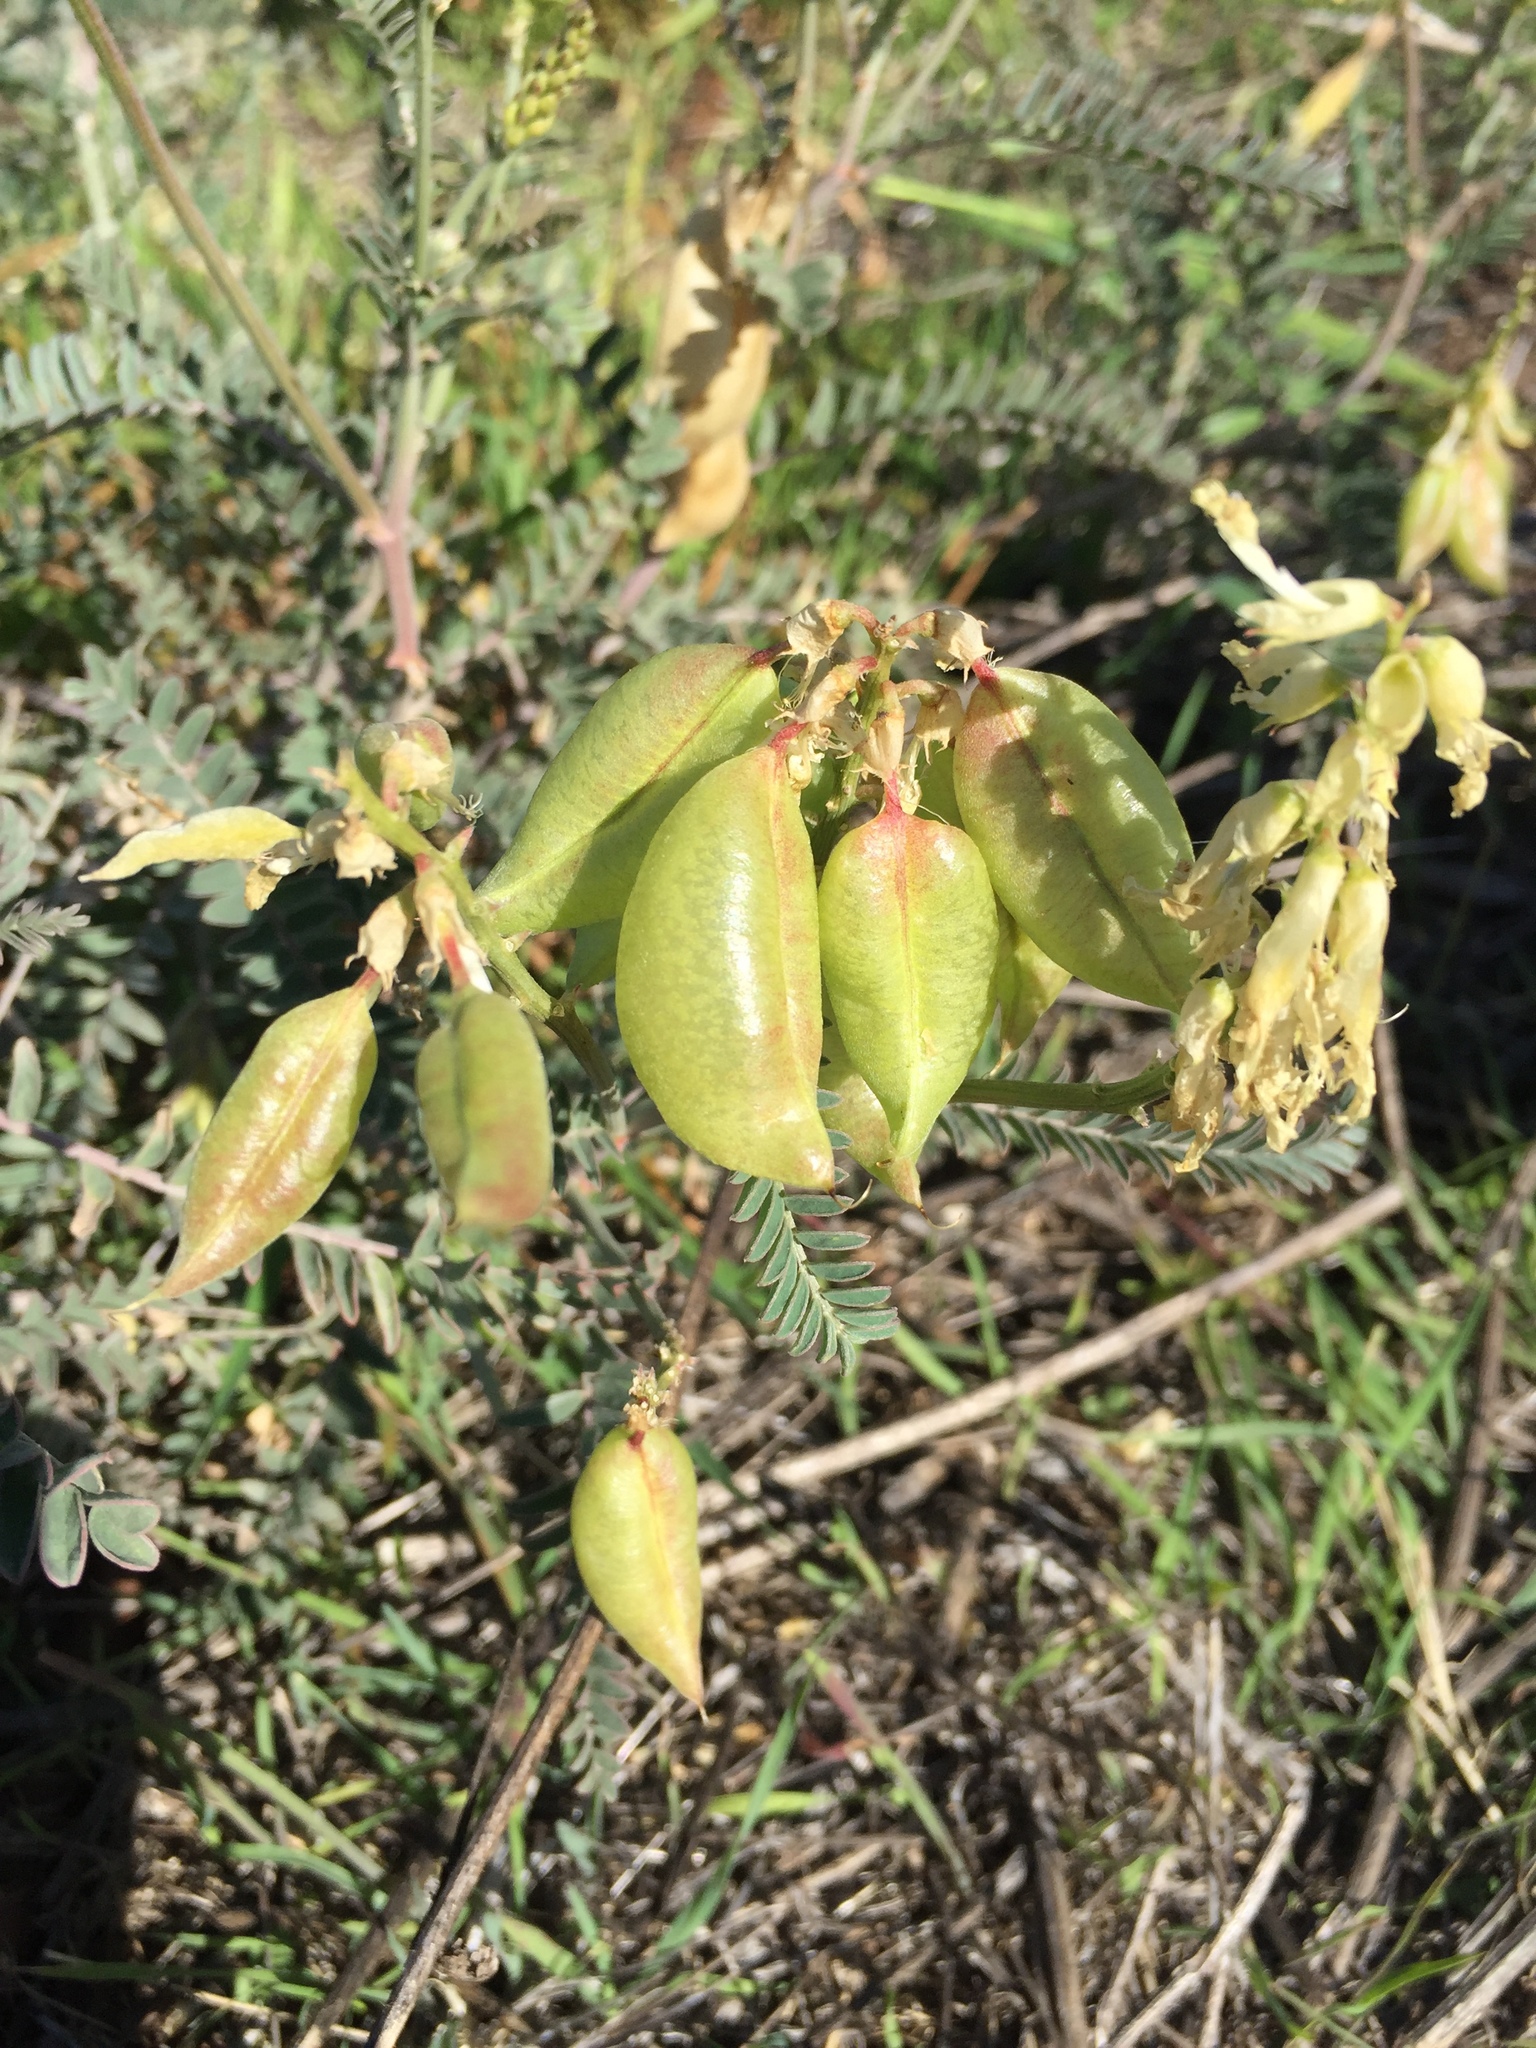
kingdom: Plantae
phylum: Tracheophyta
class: Magnoliopsida
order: Fabales
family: Fabaceae
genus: Astragalus
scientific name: Astragalus trichopodus
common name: Santa barbara milk-vetch
